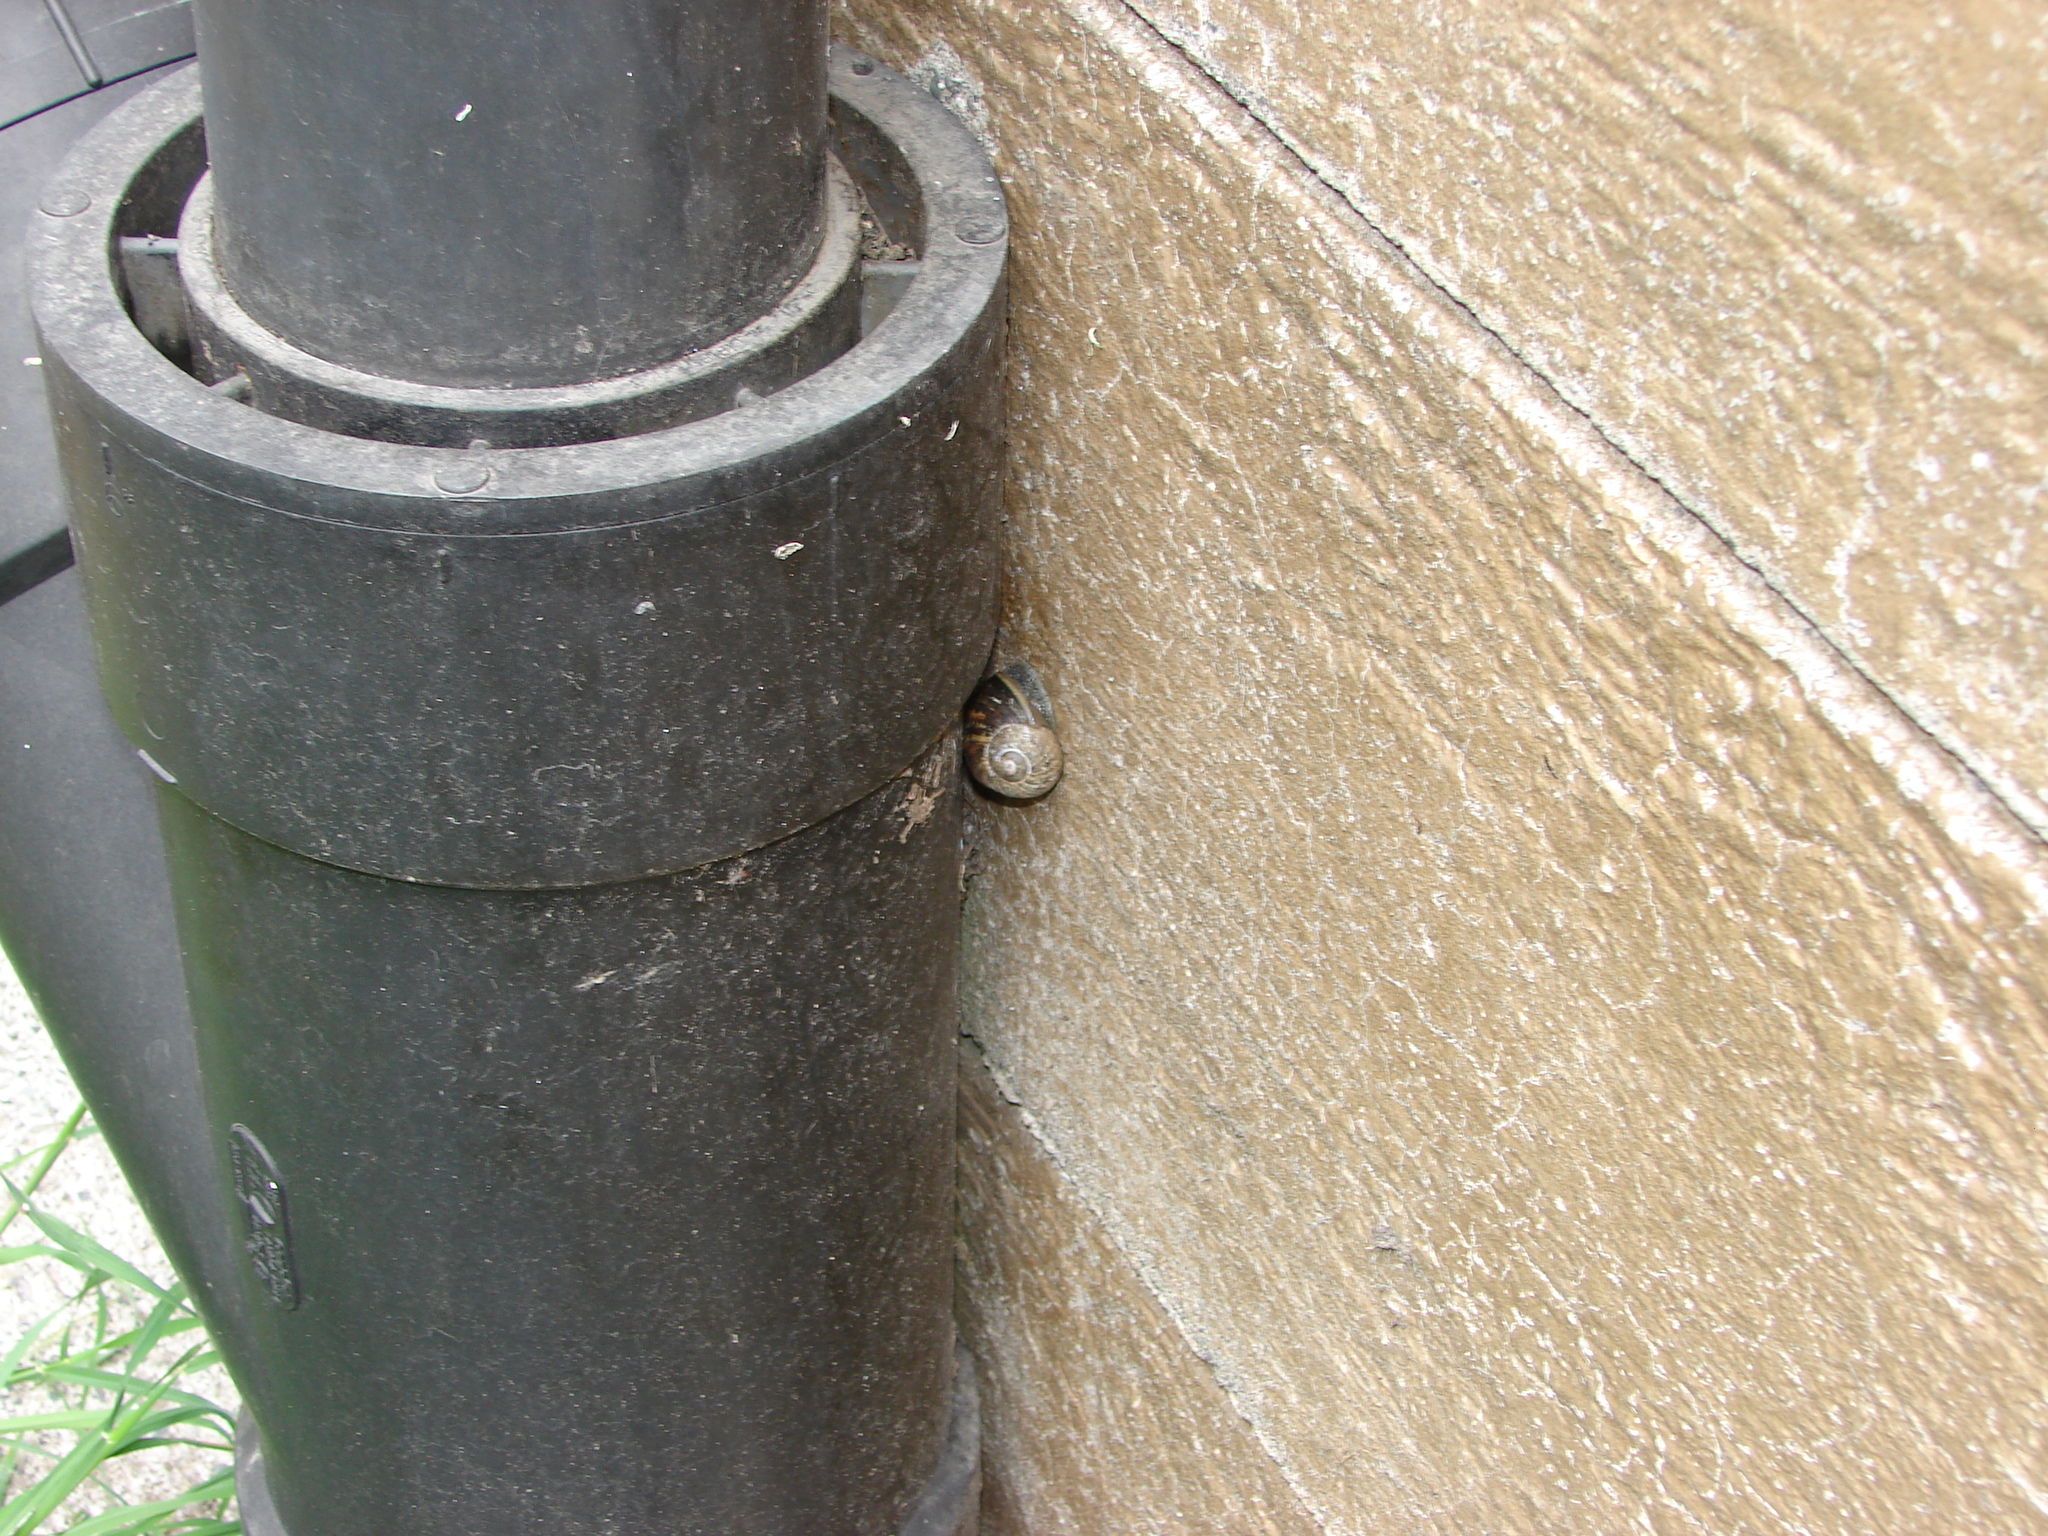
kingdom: Animalia
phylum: Mollusca
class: Gastropoda
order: Stylommatophora
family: Helicidae
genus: Cornu
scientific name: Cornu aspersum
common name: Brown garden snail
